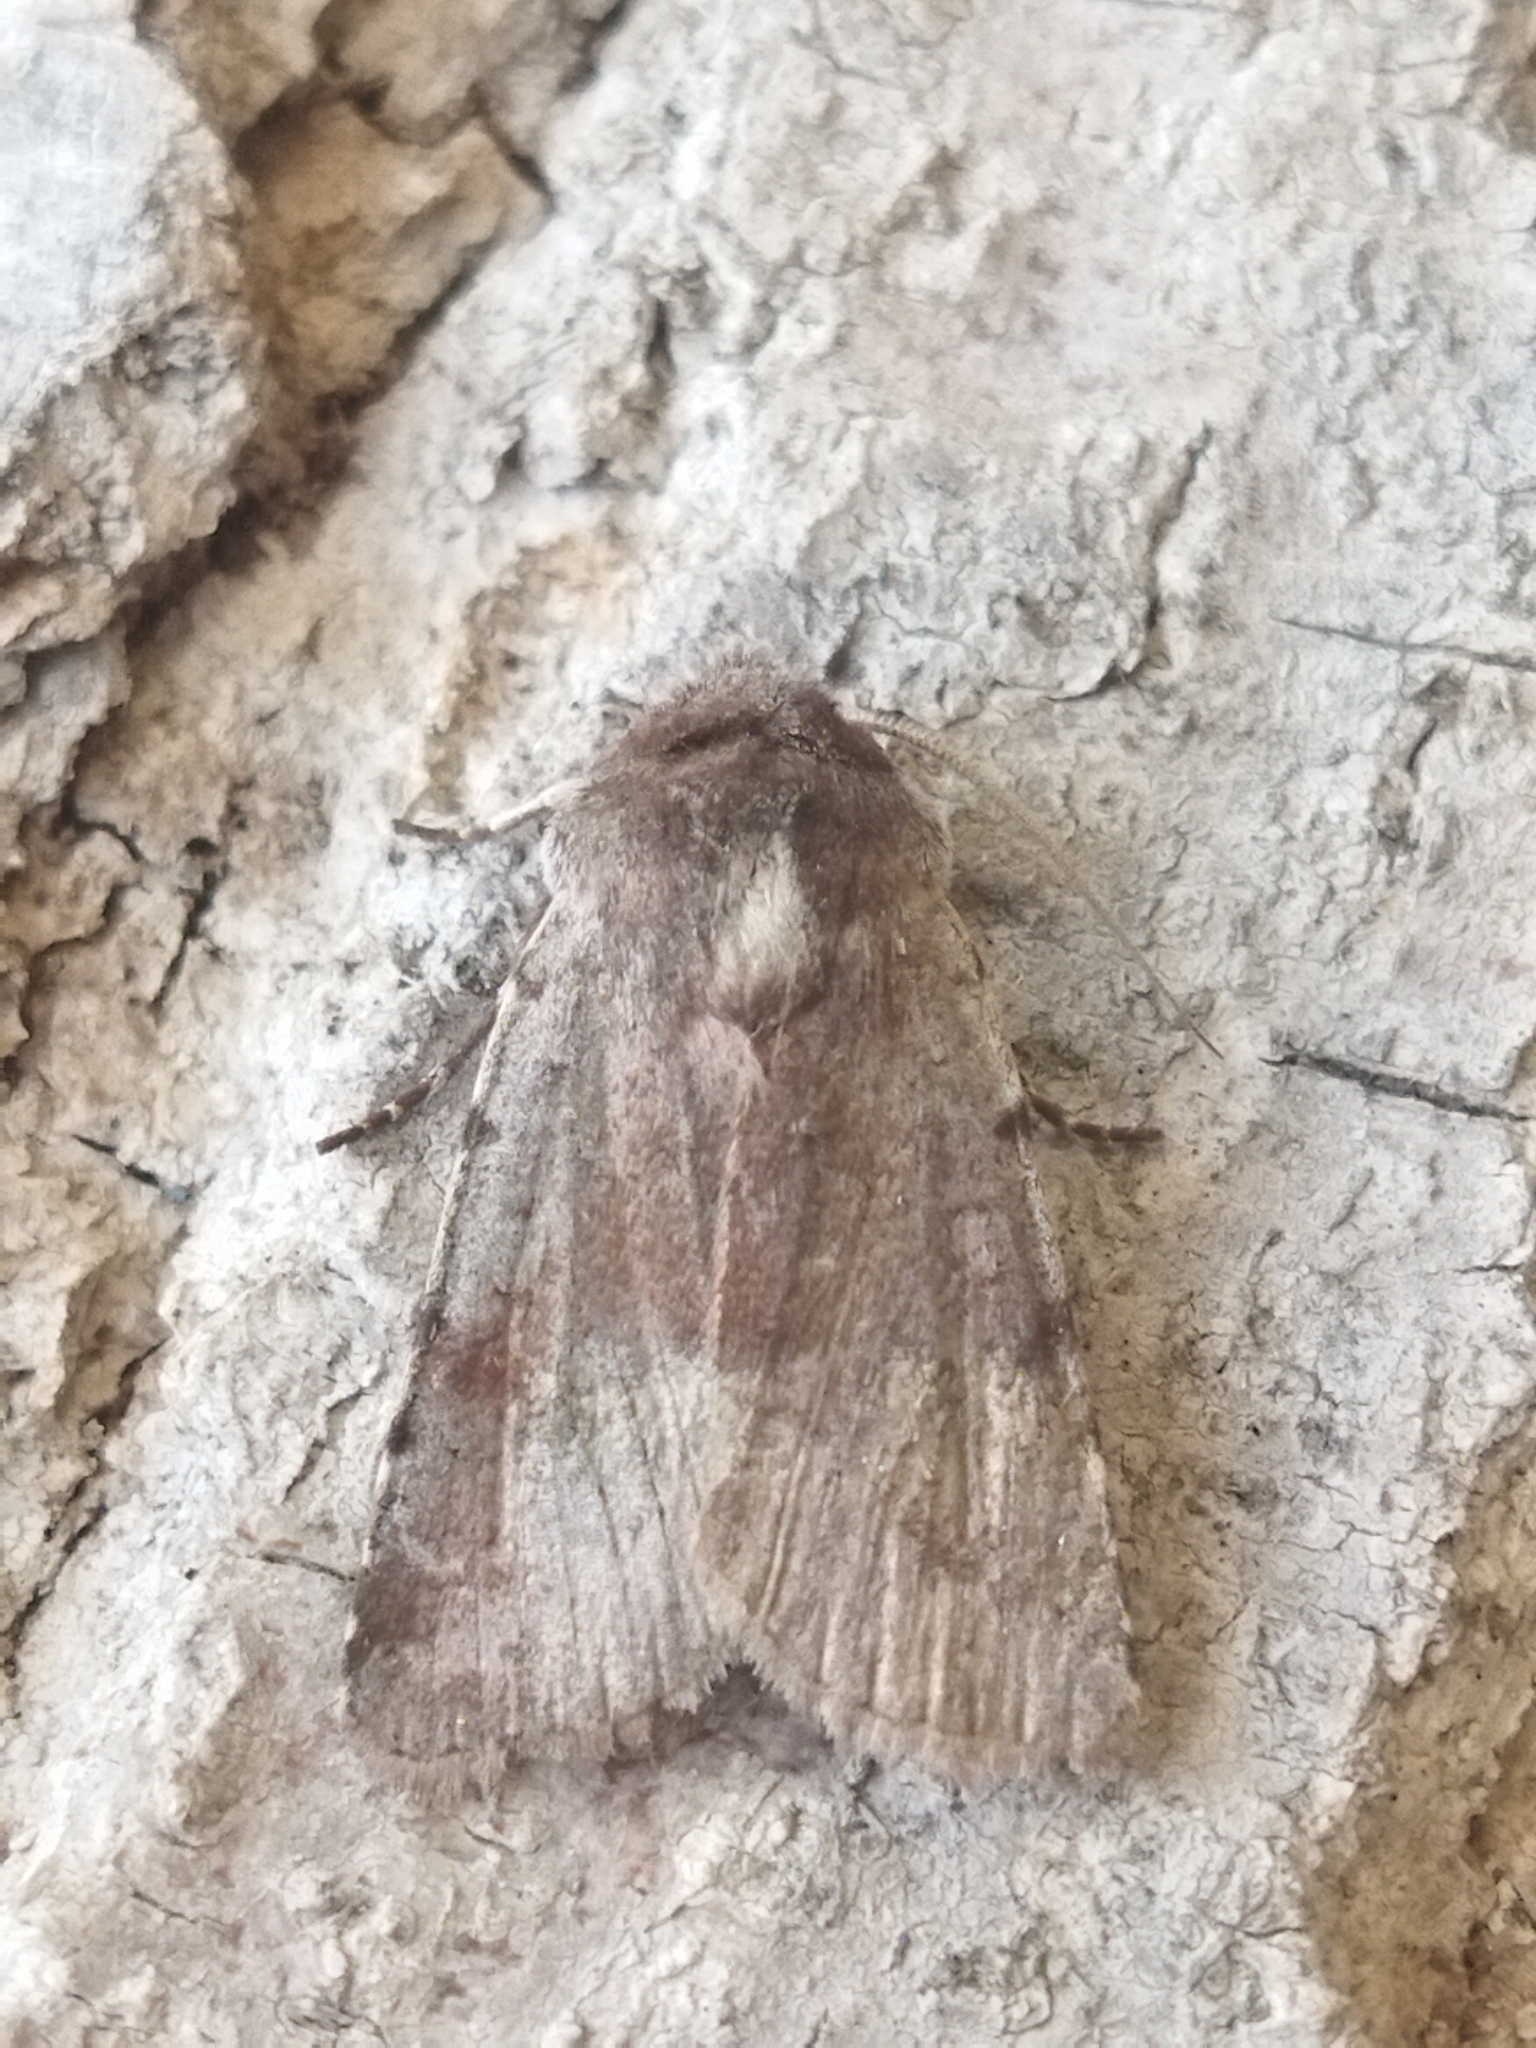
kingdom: Animalia
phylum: Arthropoda
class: Insecta
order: Lepidoptera
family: Noctuidae
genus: Cerastis
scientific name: Cerastis rubricosa
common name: Red chestnut
